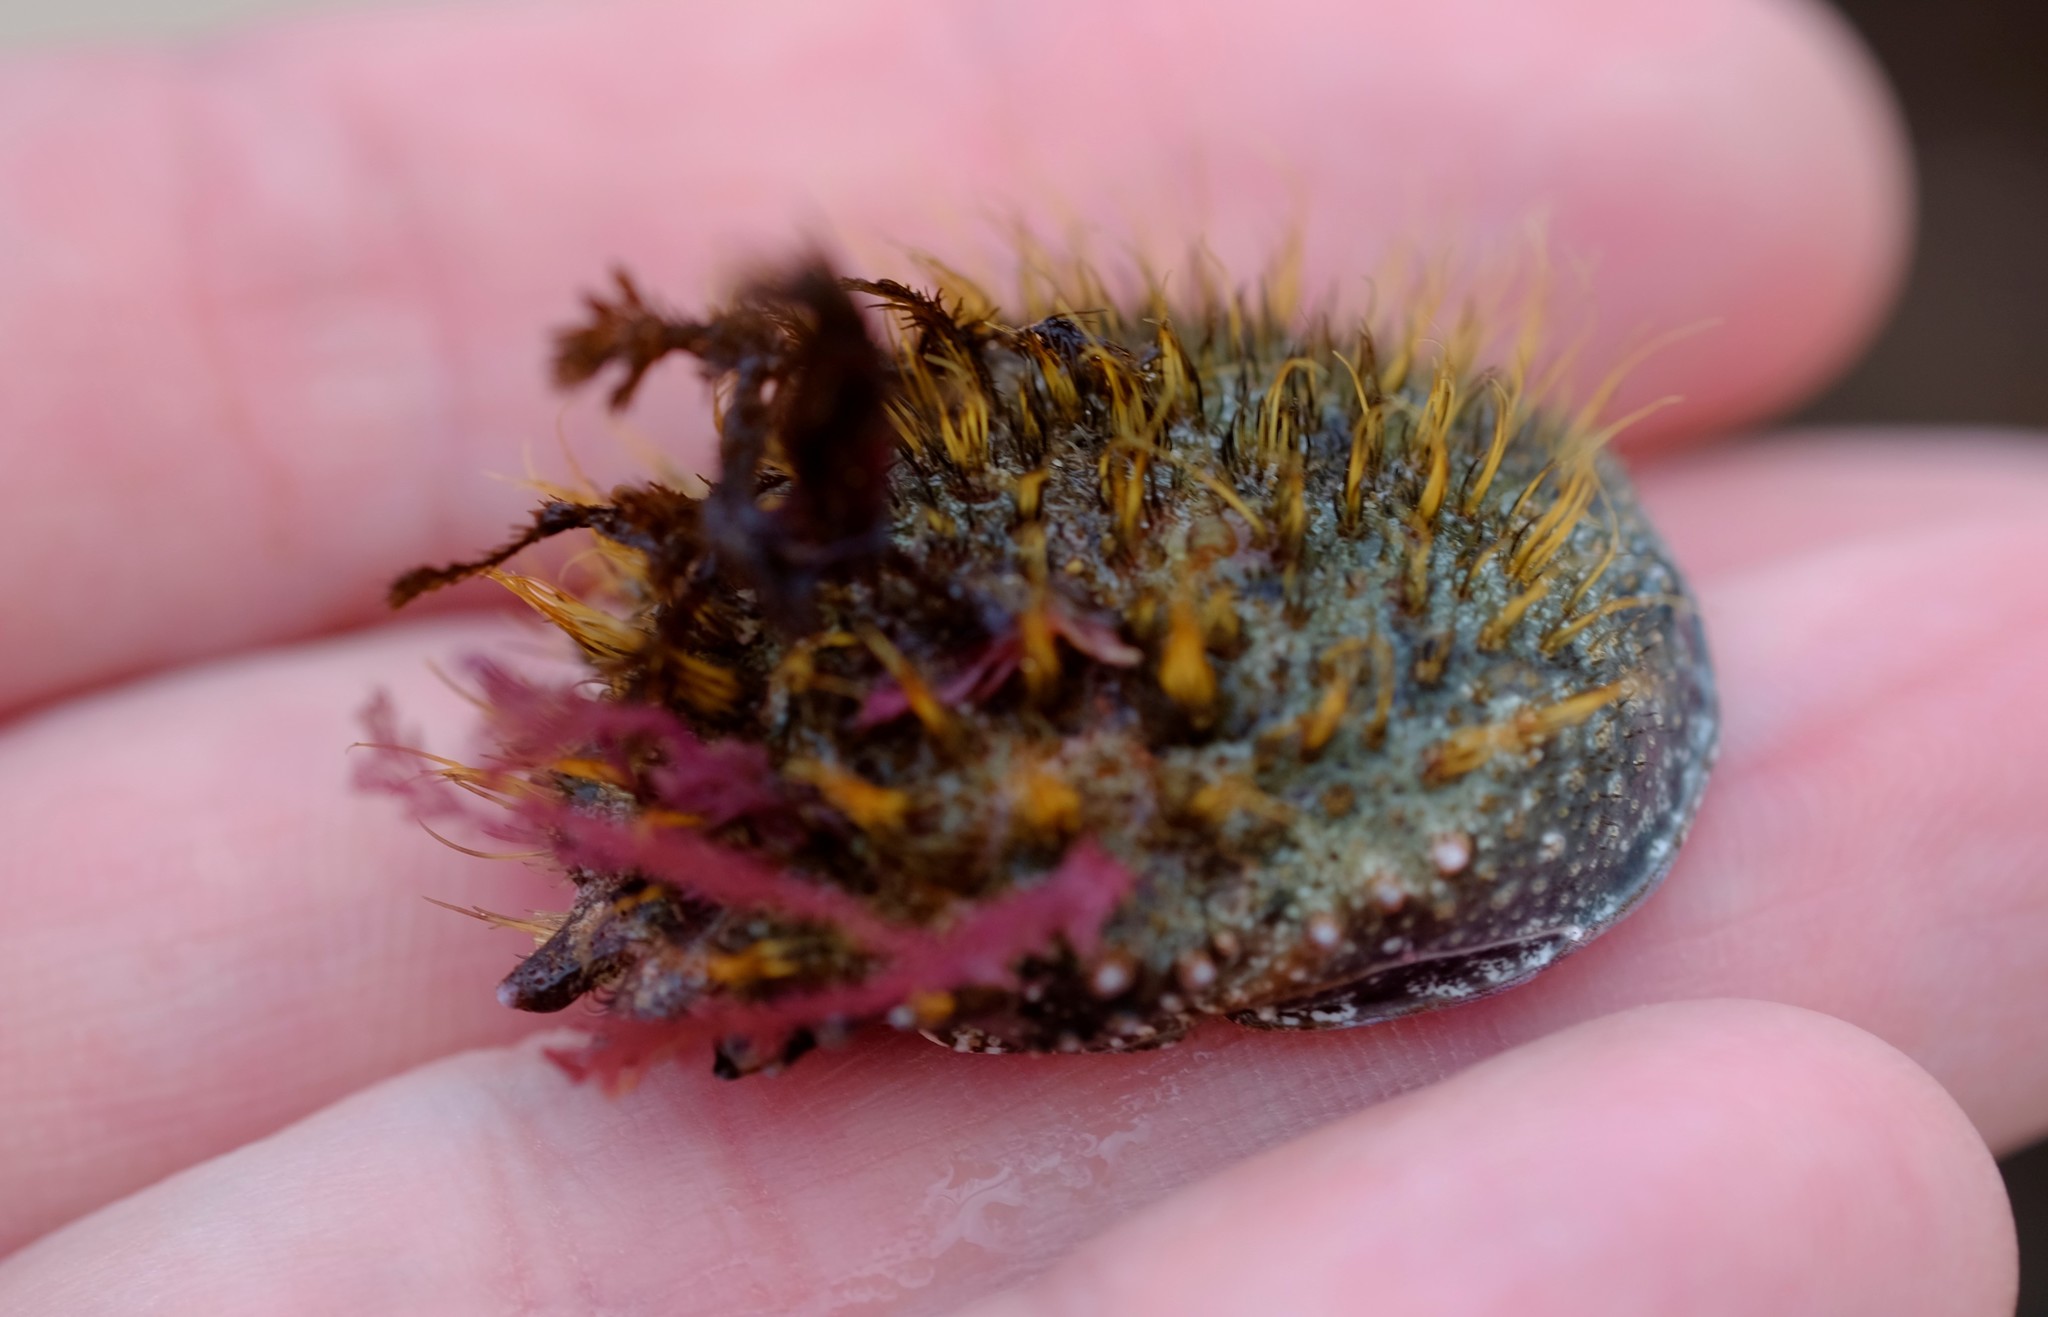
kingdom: Animalia
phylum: Arthropoda
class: Malacostraca
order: Decapoda
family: Majidae
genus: Notomithrax
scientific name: Notomithrax ursus
